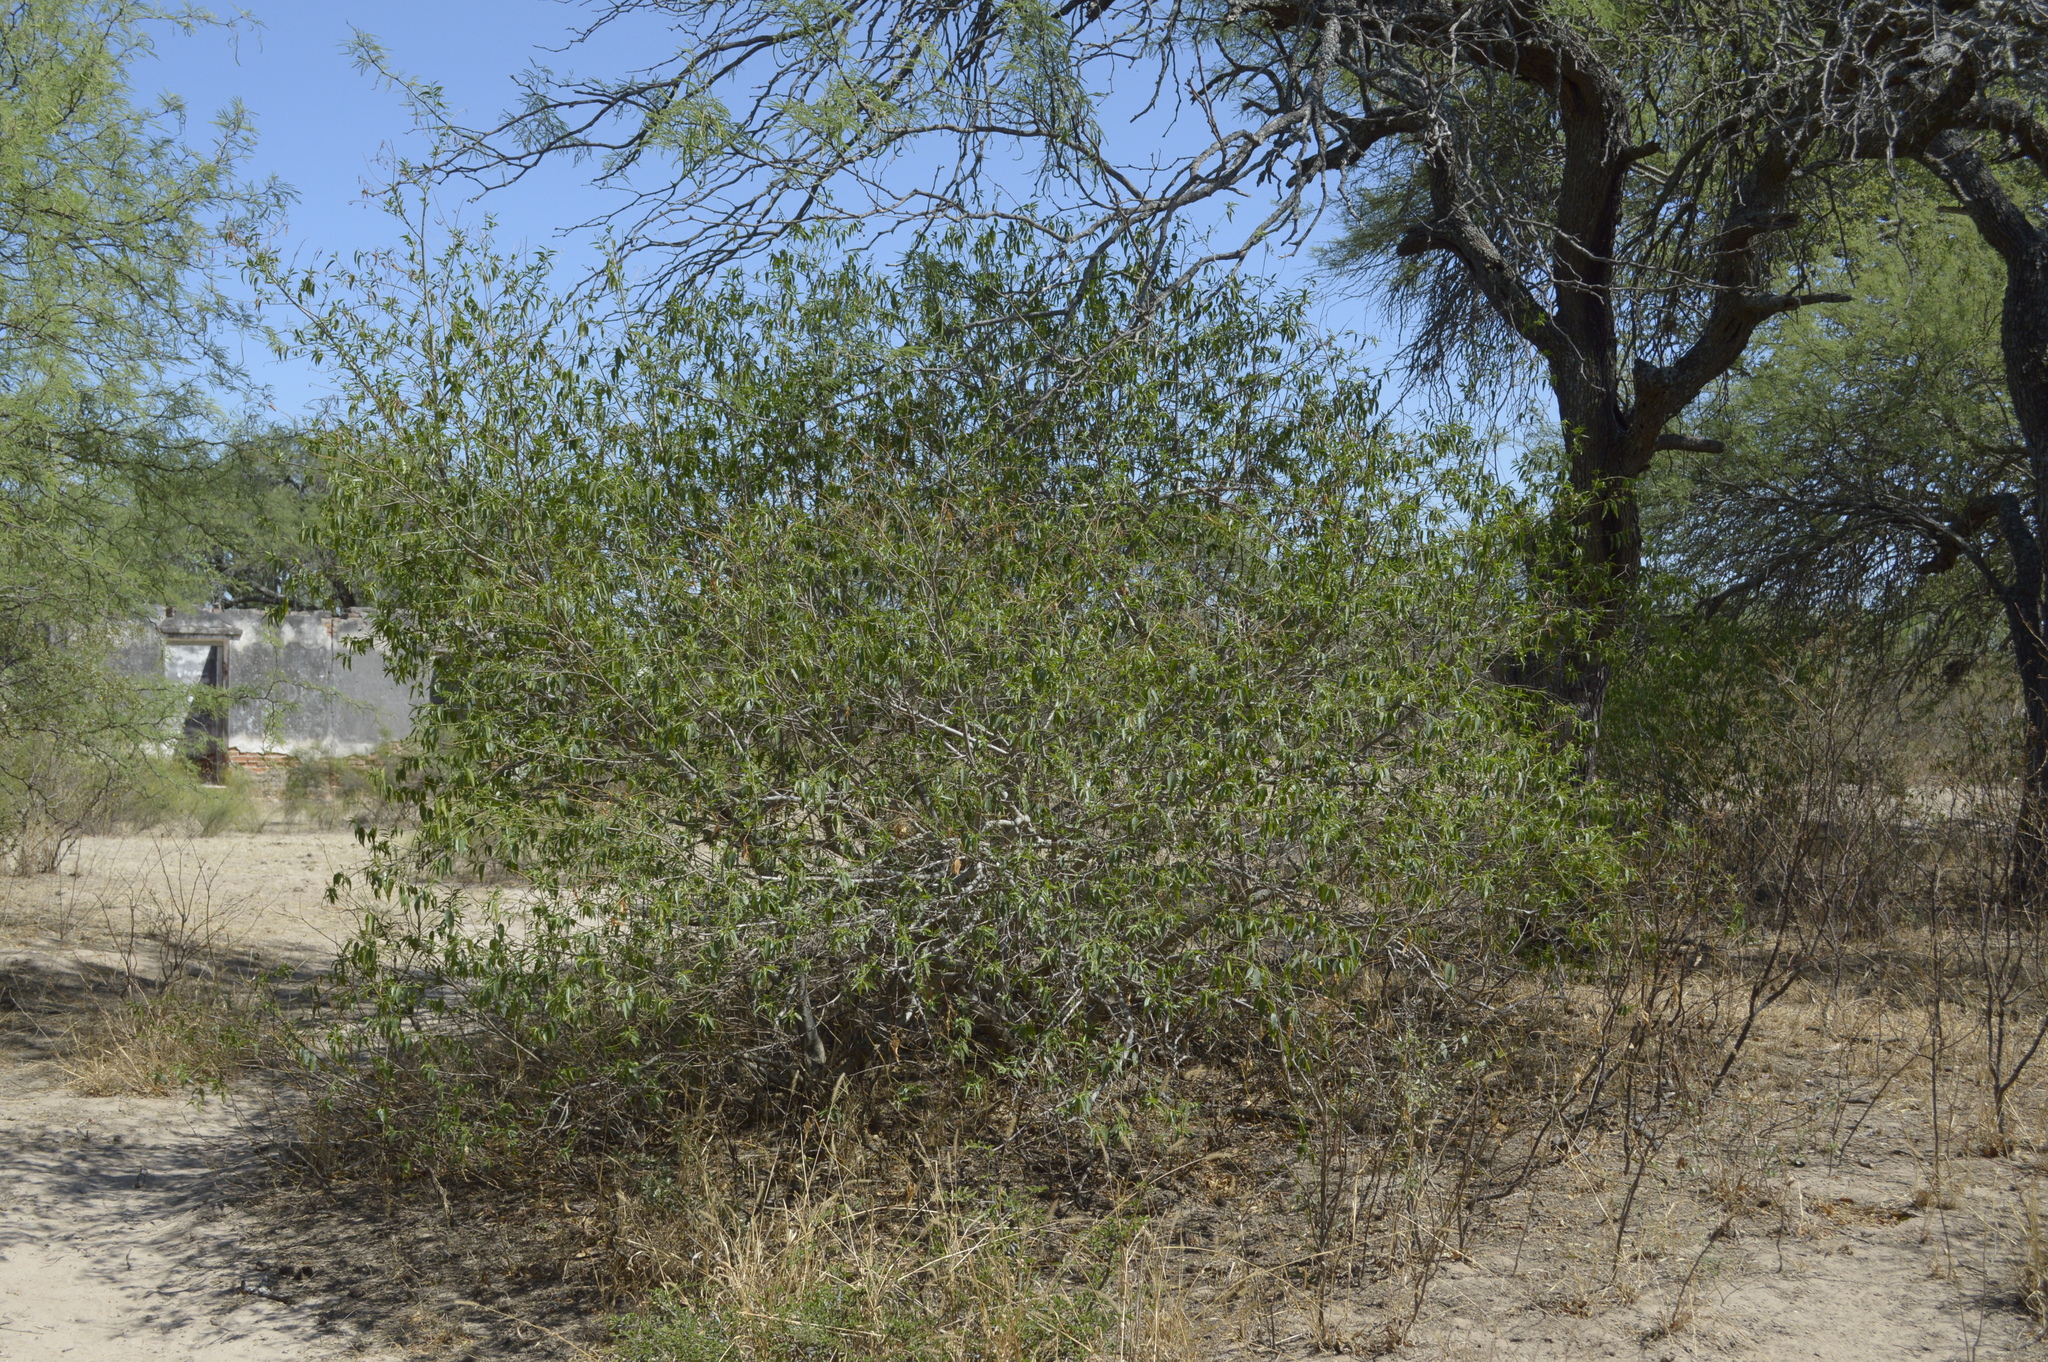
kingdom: Plantae
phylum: Tracheophyta
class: Magnoliopsida
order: Gentianales
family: Apocynaceae
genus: Vallesia
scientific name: Vallesia glabra
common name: Pearlberry
